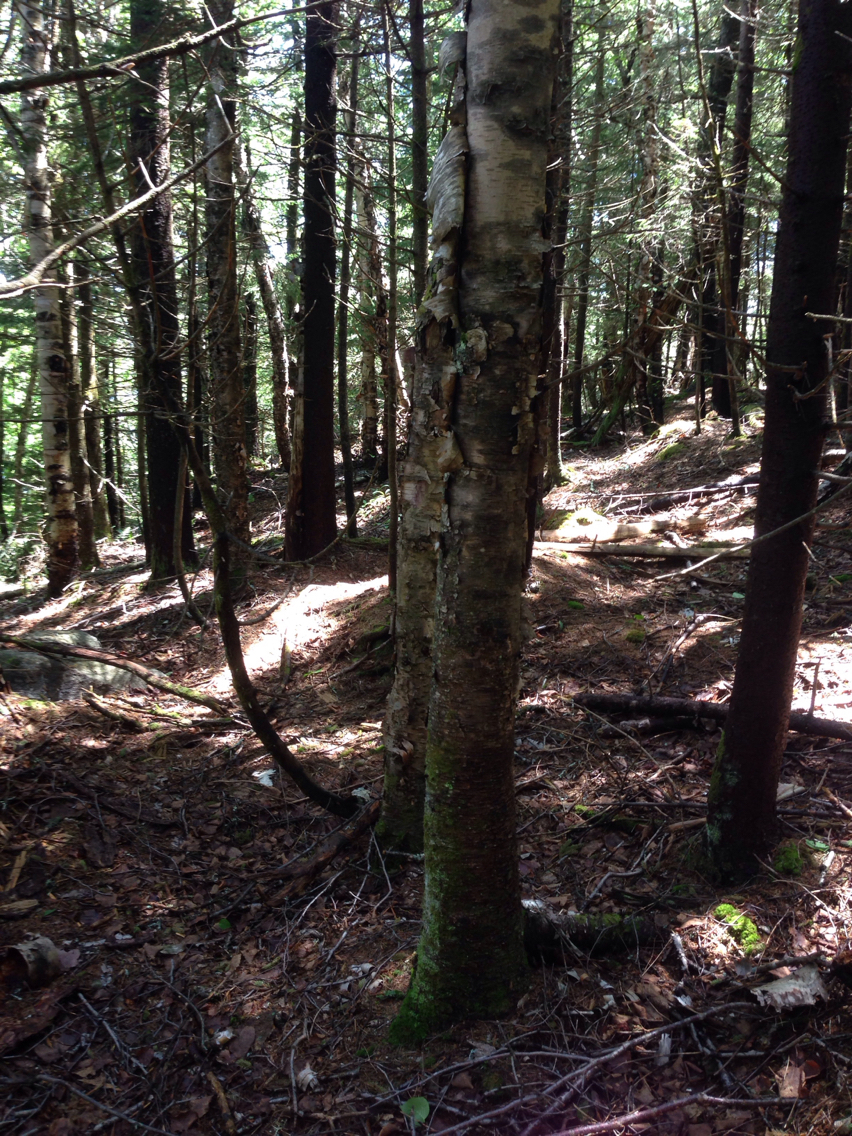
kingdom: Plantae
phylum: Tracheophyta
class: Magnoliopsida
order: Fagales
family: Betulaceae
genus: Betula
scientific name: Betula cordifolia
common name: Mountain white birch
